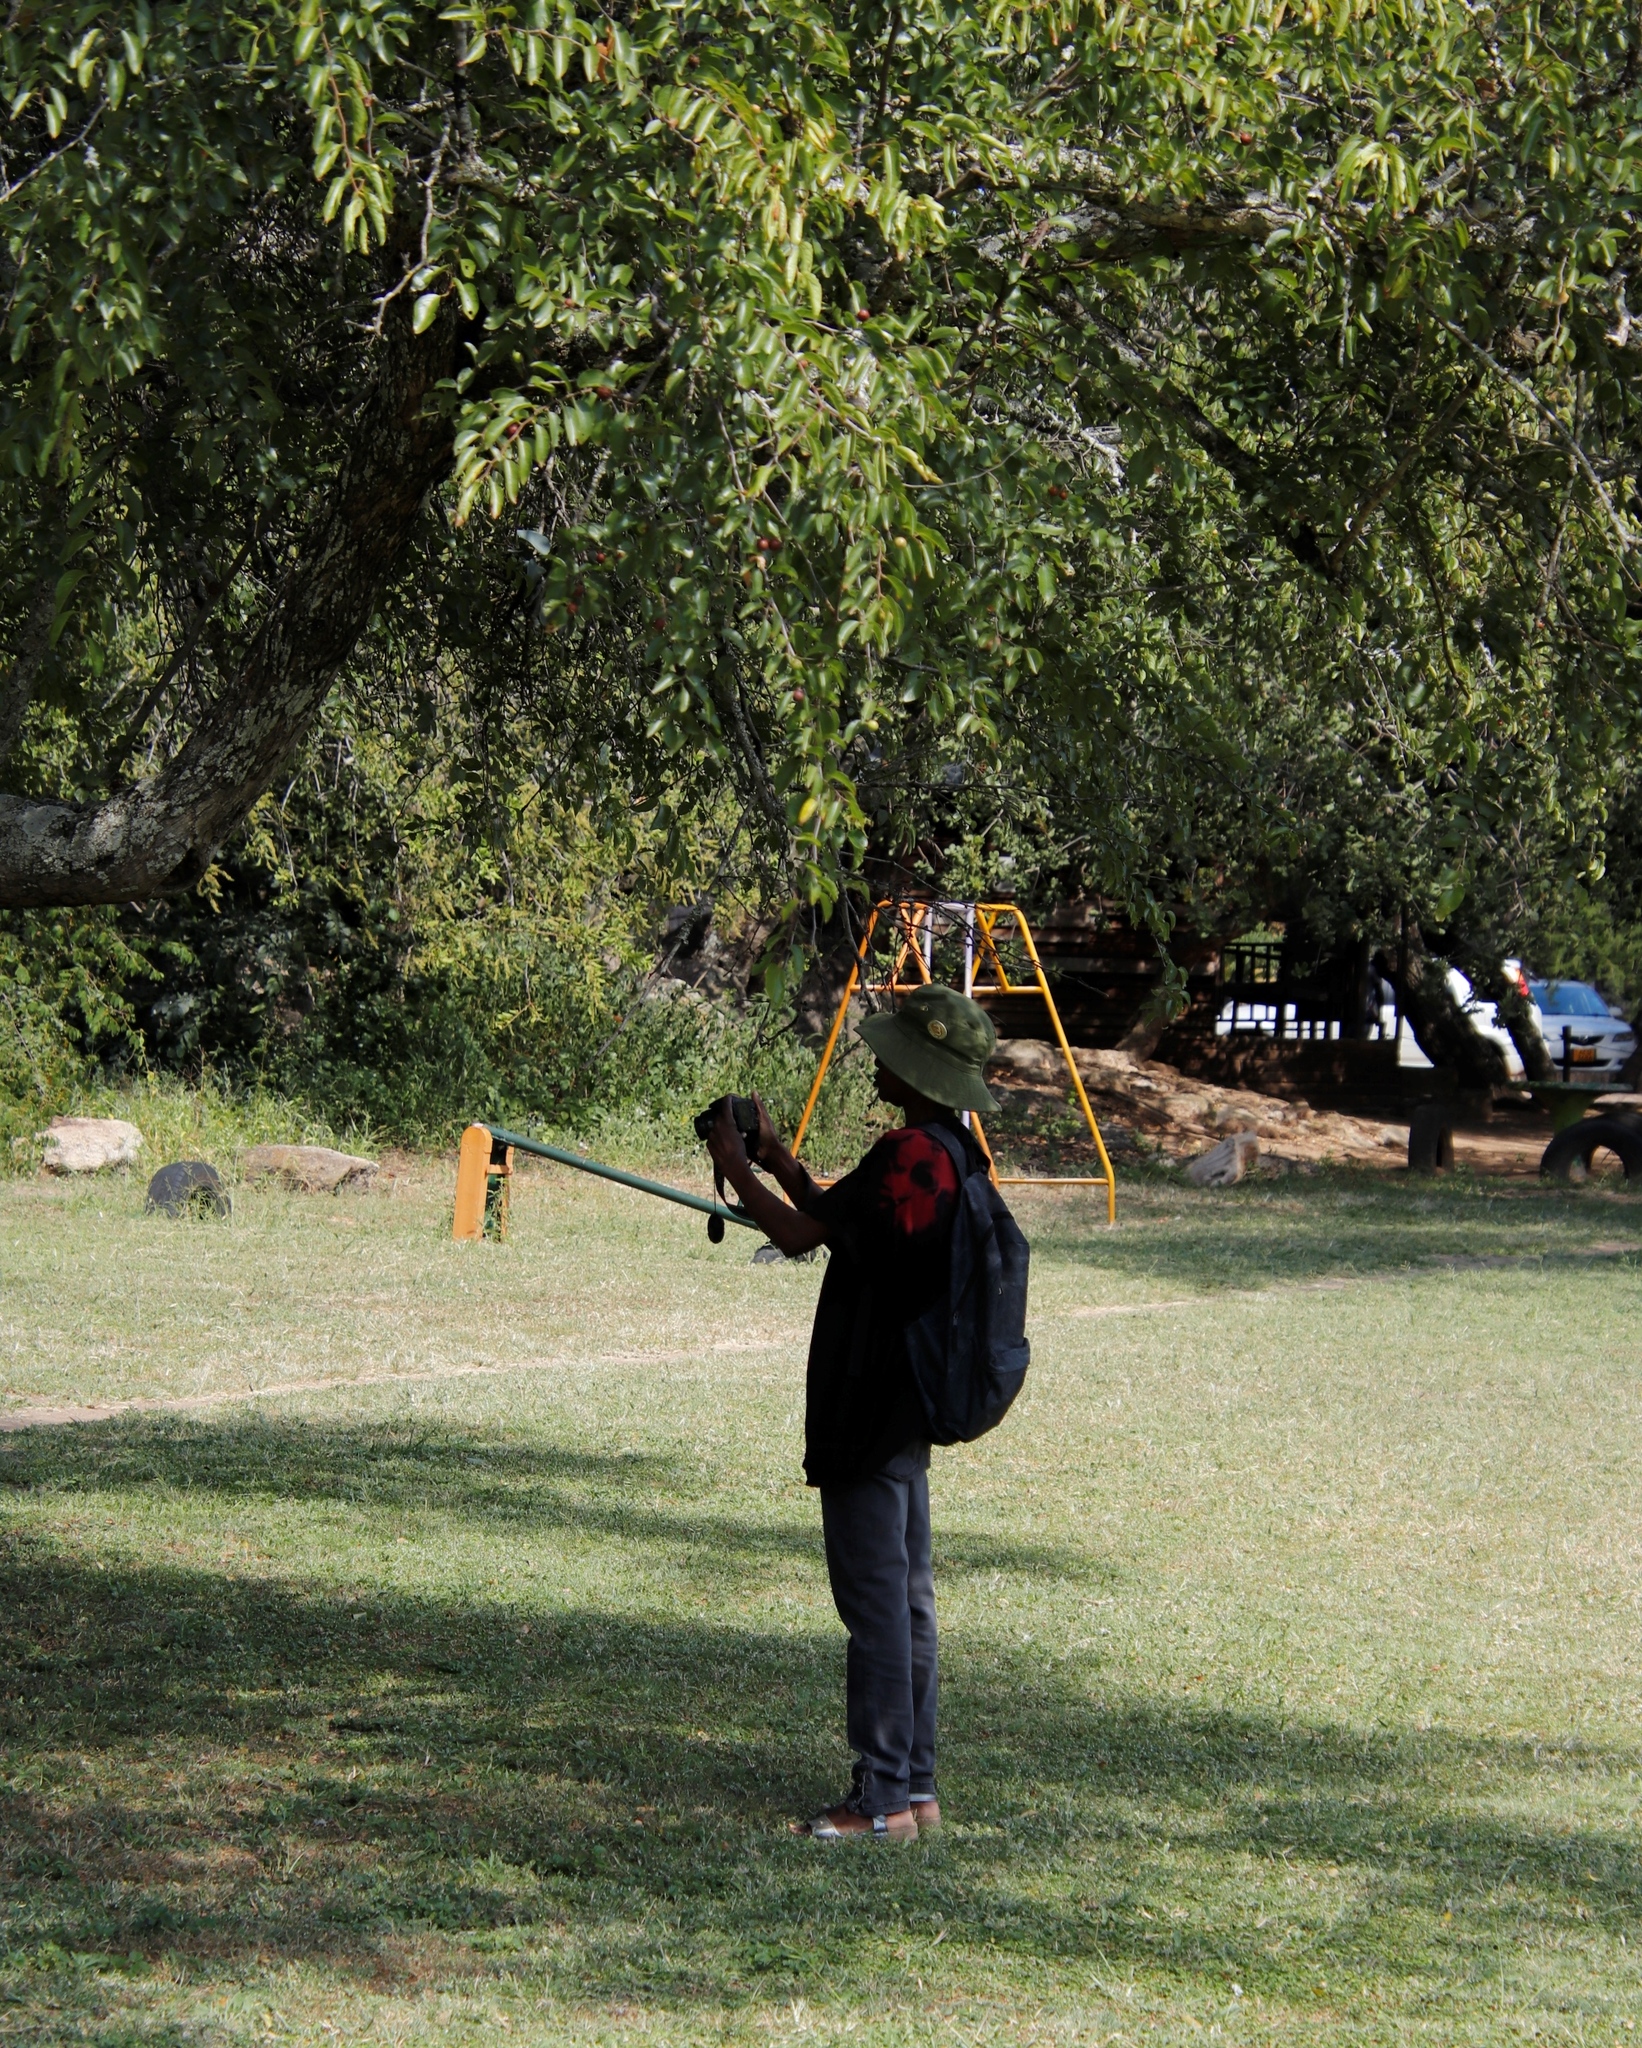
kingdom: Plantae
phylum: Tracheophyta
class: Magnoliopsida
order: Rosales
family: Rhamnaceae
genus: Ziziphus
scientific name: Ziziphus mucronata
